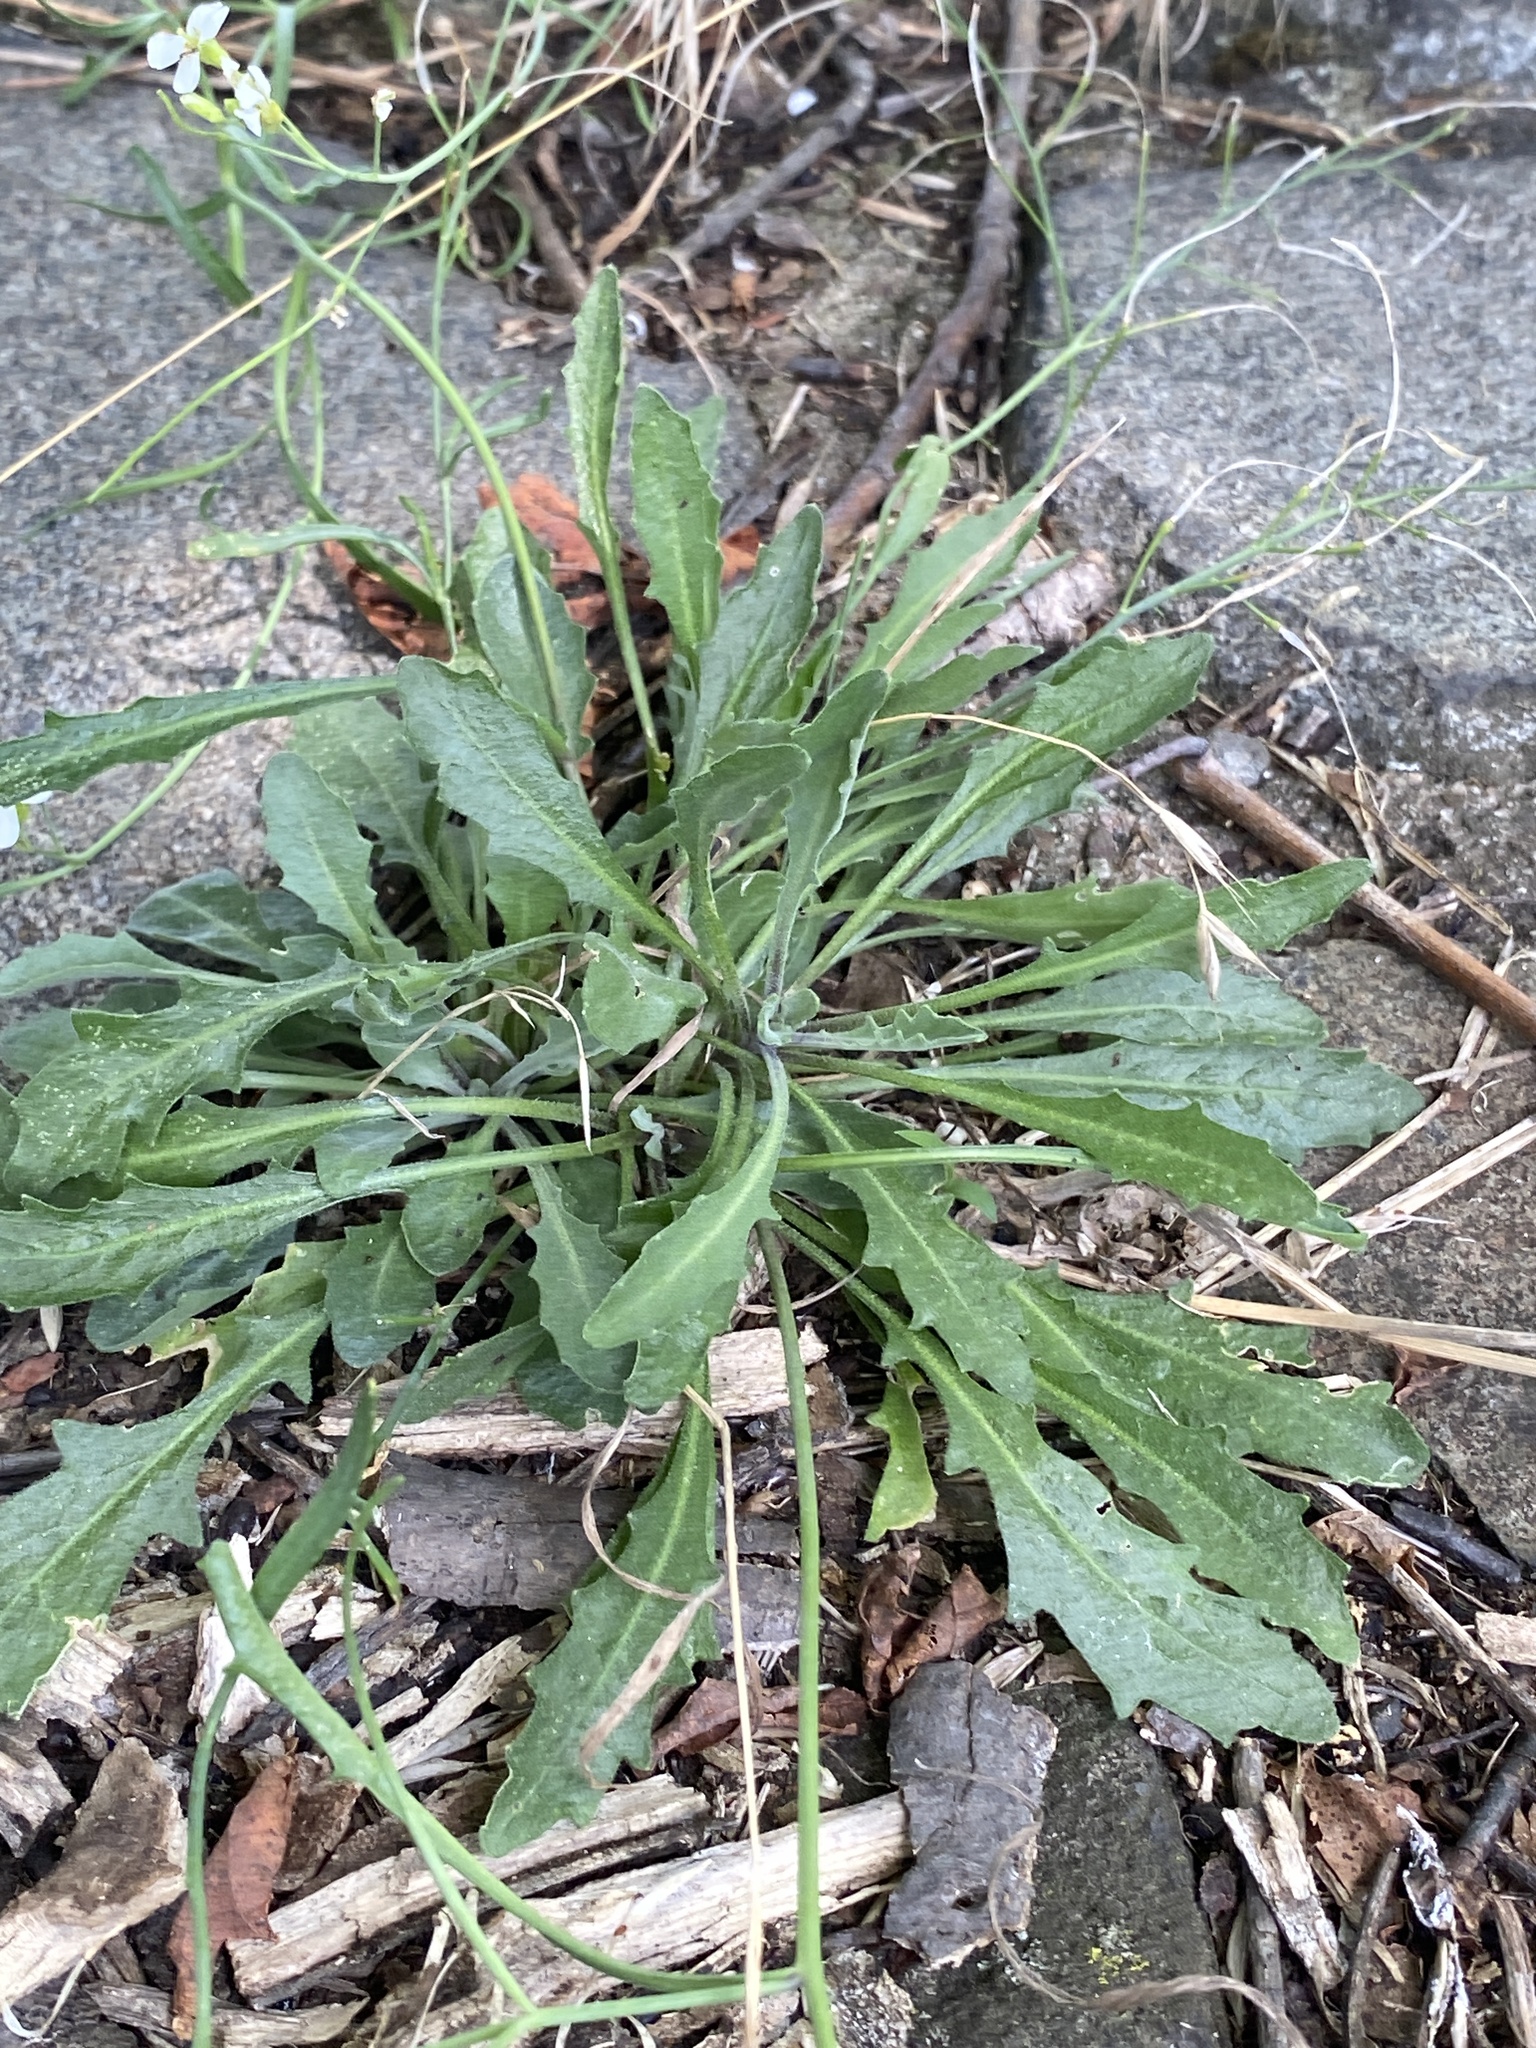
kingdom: Plantae
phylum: Tracheophyta
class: Magnoliopsida
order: Brassicales
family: Brassicaceae
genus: Arabidopsis
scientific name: Arabidopsis lyrata
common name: Lyrate rockcress
